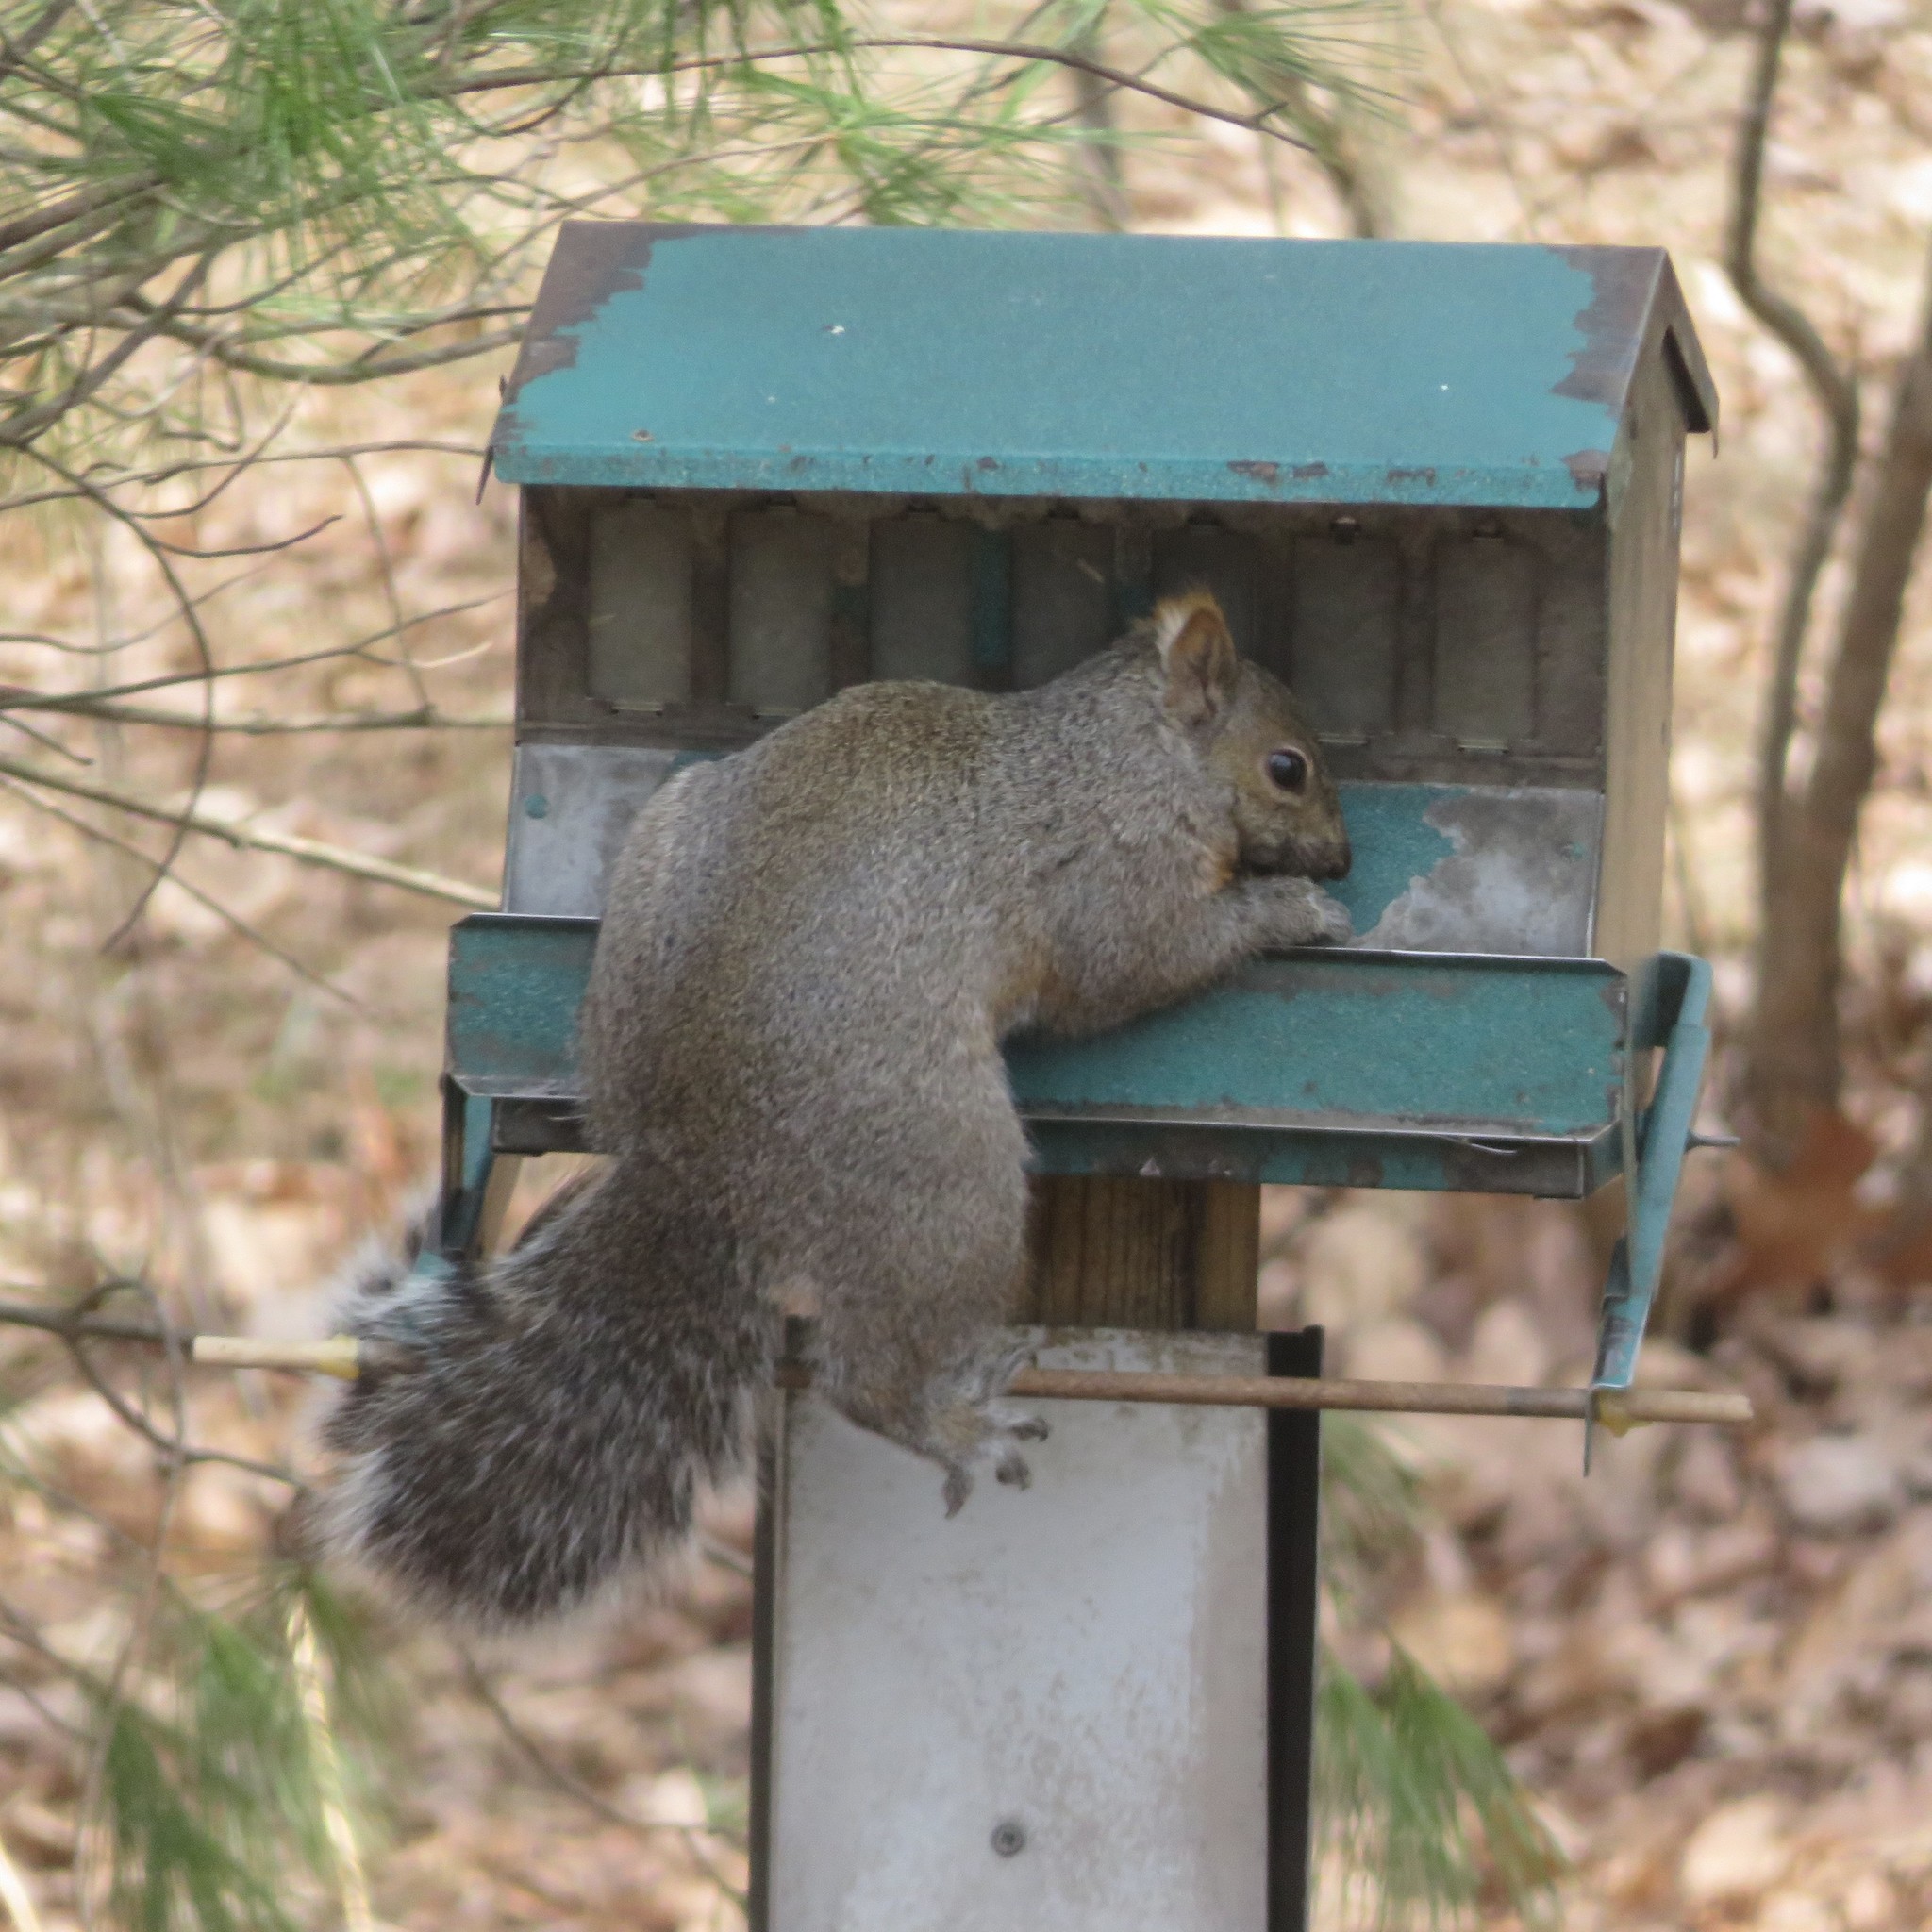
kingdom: Animalia
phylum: Chordata
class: Mammalia
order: Rodentia
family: Sciuridae
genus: Sciurus
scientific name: Sciurus carolinensis
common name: Eastern gray squirrel
